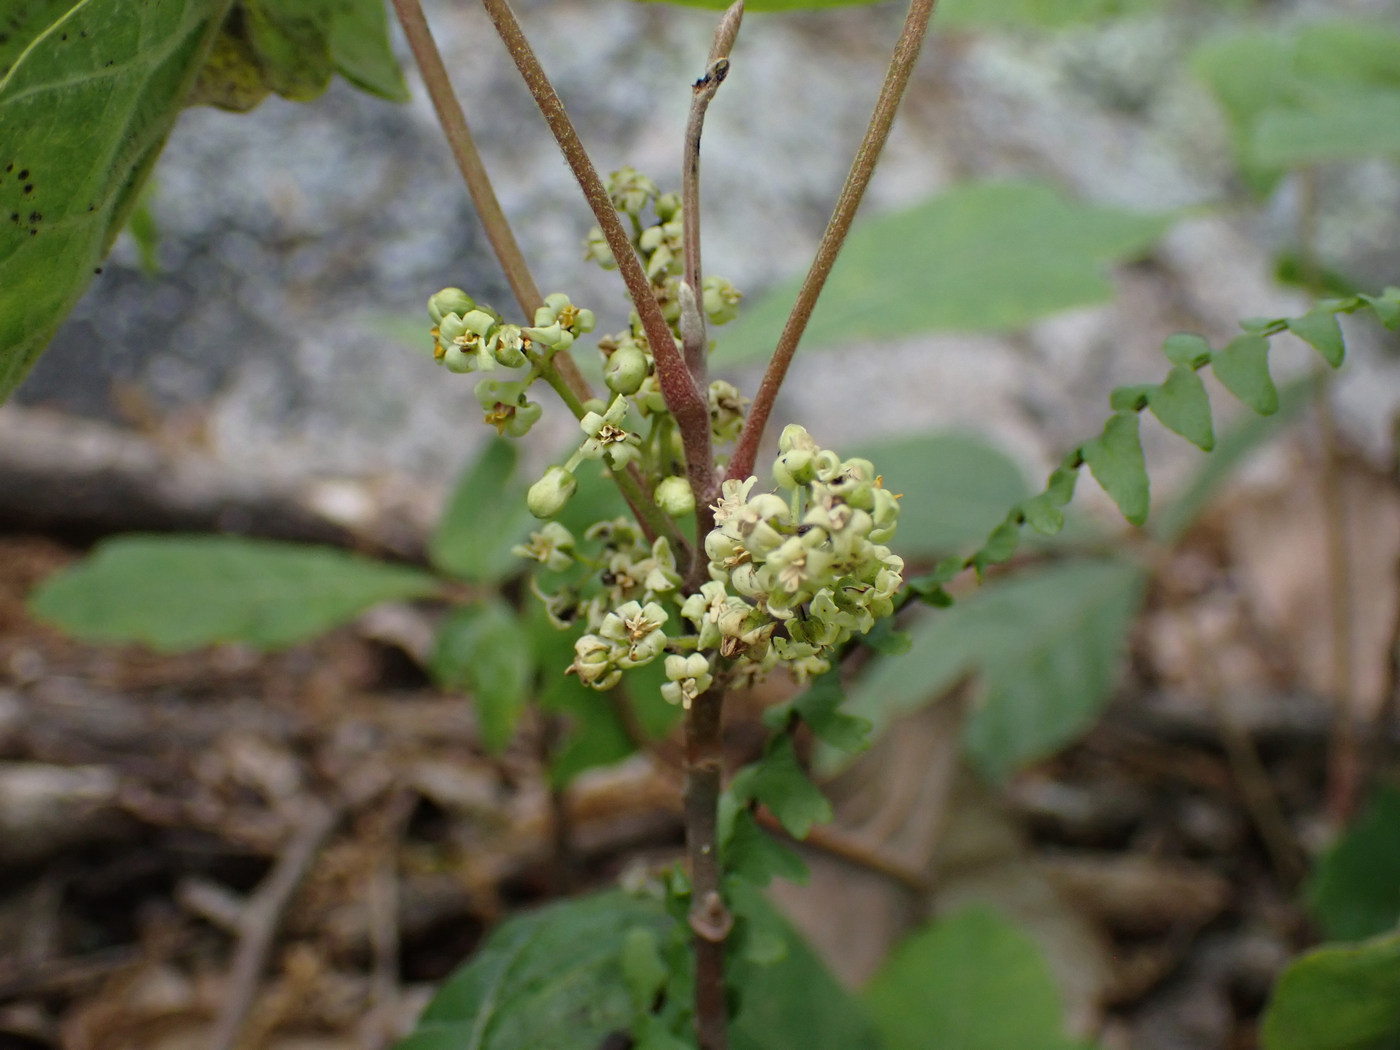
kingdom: Plantae
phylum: Tracheophyta
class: Magnoliopsida
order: Sapindales
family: Anacardiaceae
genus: Toxicodendron
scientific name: Toxicodendron pubescens
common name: Eastern poison-oak
